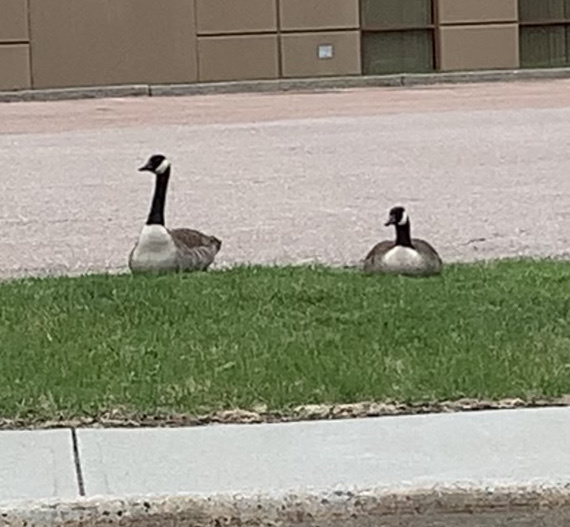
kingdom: Animalia
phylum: Chordata
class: Aves
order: Anseriformes
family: Anatidae
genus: Branta
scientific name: Branta canadensis
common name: Canada goose
